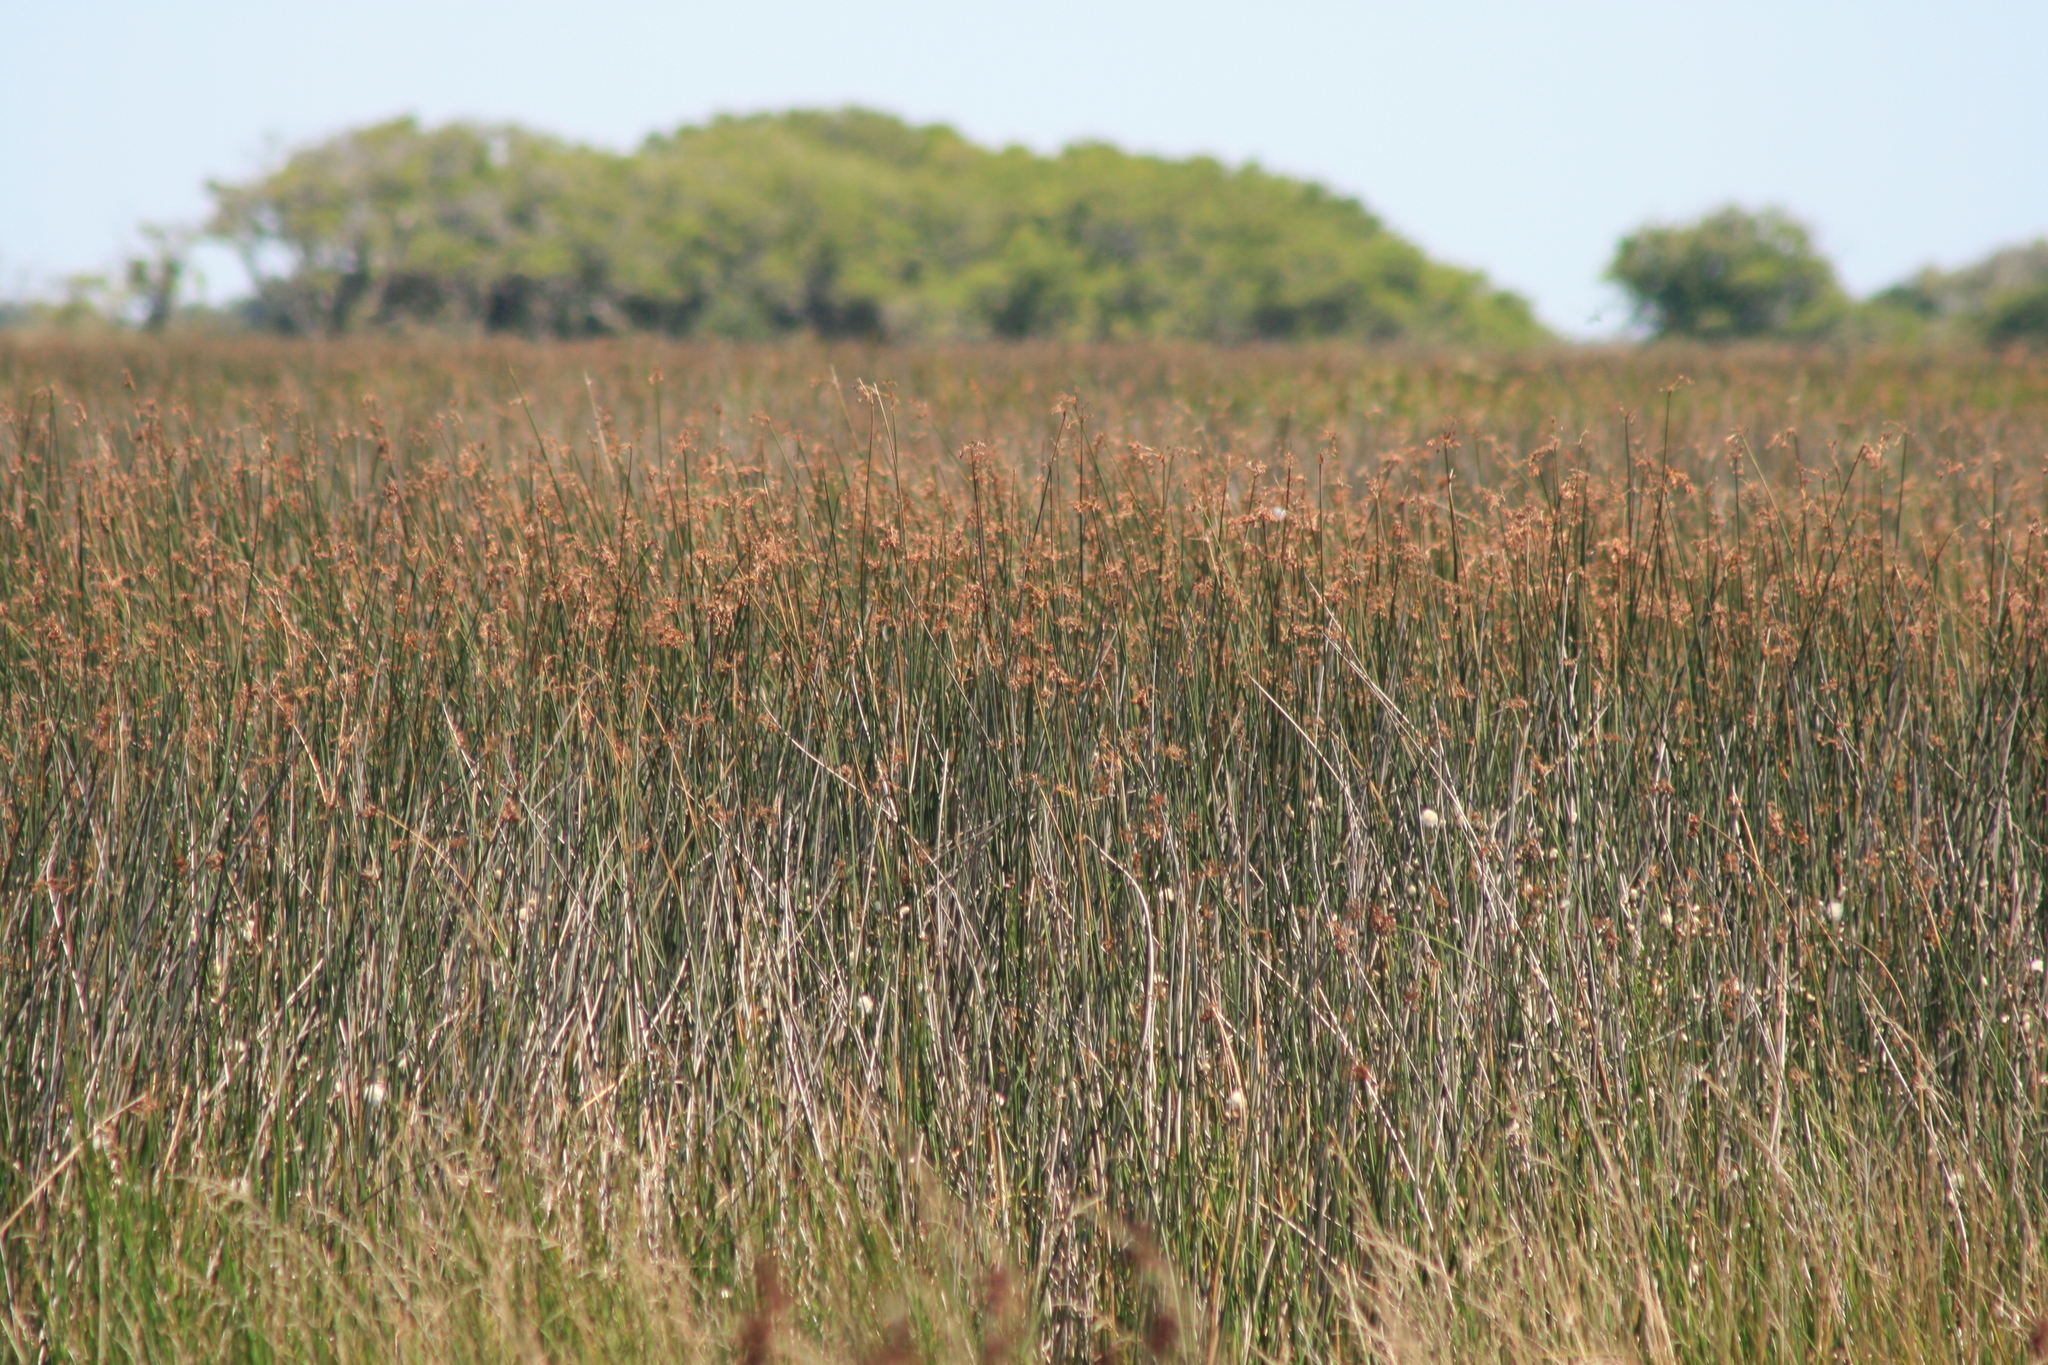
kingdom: Plantae
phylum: Tracheophyta
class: Liliopsida
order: Poales
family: Cyperaceae
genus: Schoenoplectus
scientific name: Schoenoplectus californicus
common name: California bulrush
